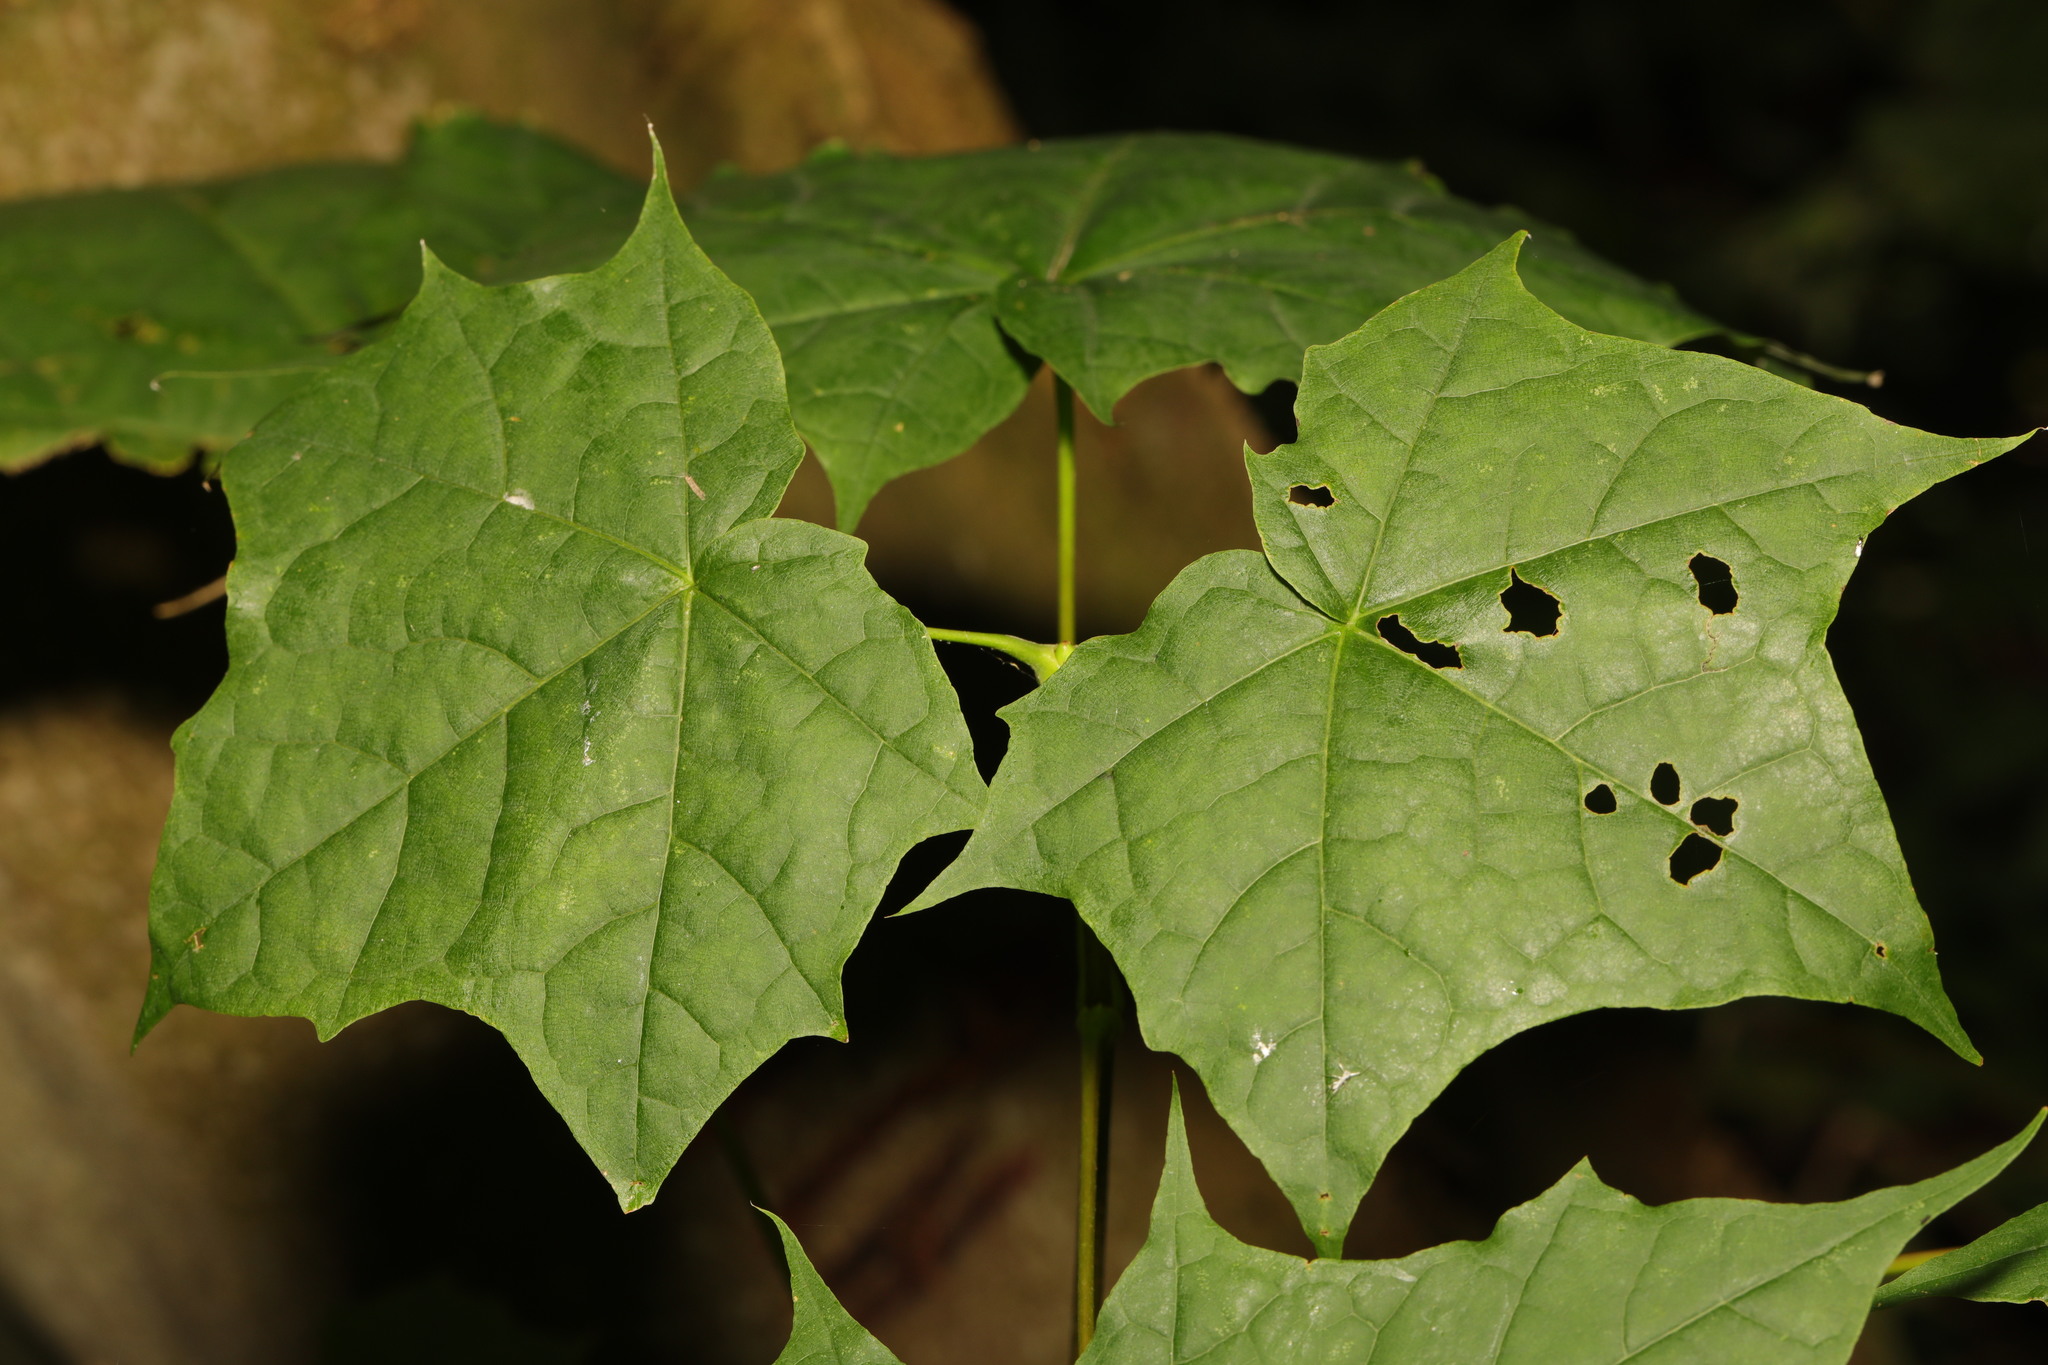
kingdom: Plantae
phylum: Tracheophyta
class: Magnoliopsida
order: Sapindales
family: Sapindaceae
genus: Acer
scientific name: Acer platanoides
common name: Norway maple
